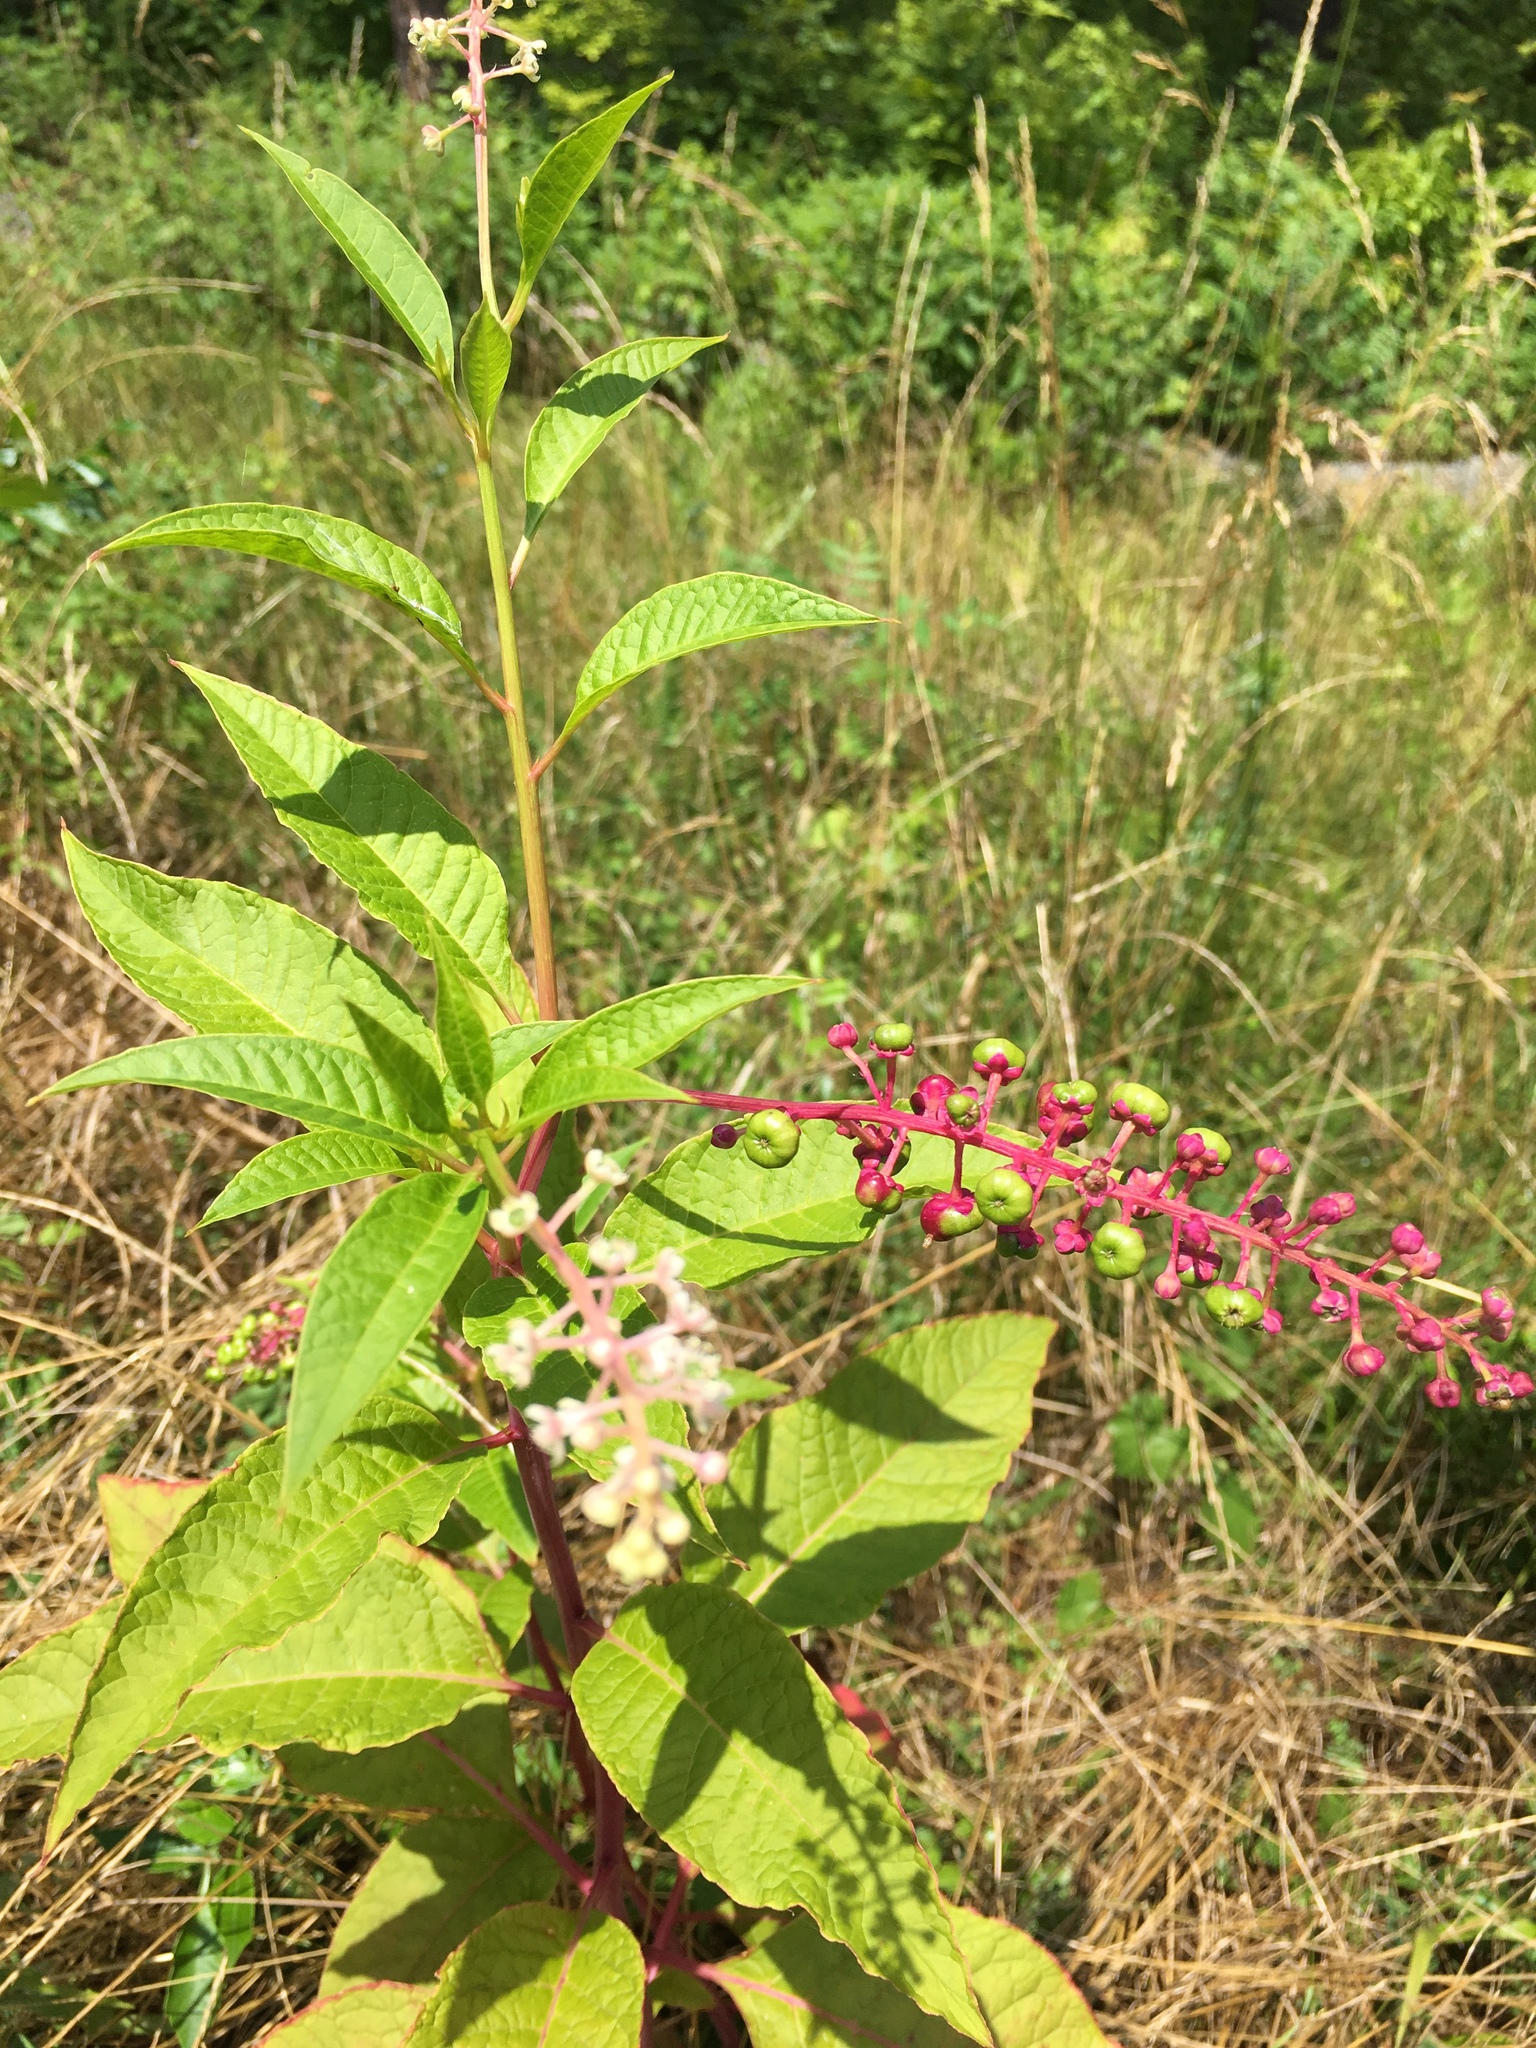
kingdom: Plantae
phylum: Tracheophyta
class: Magnoliopsida
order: Caryophyllales
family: Phytolaccaceae
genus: Phytolacca
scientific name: Phytolacca americana
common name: American pokeweed
